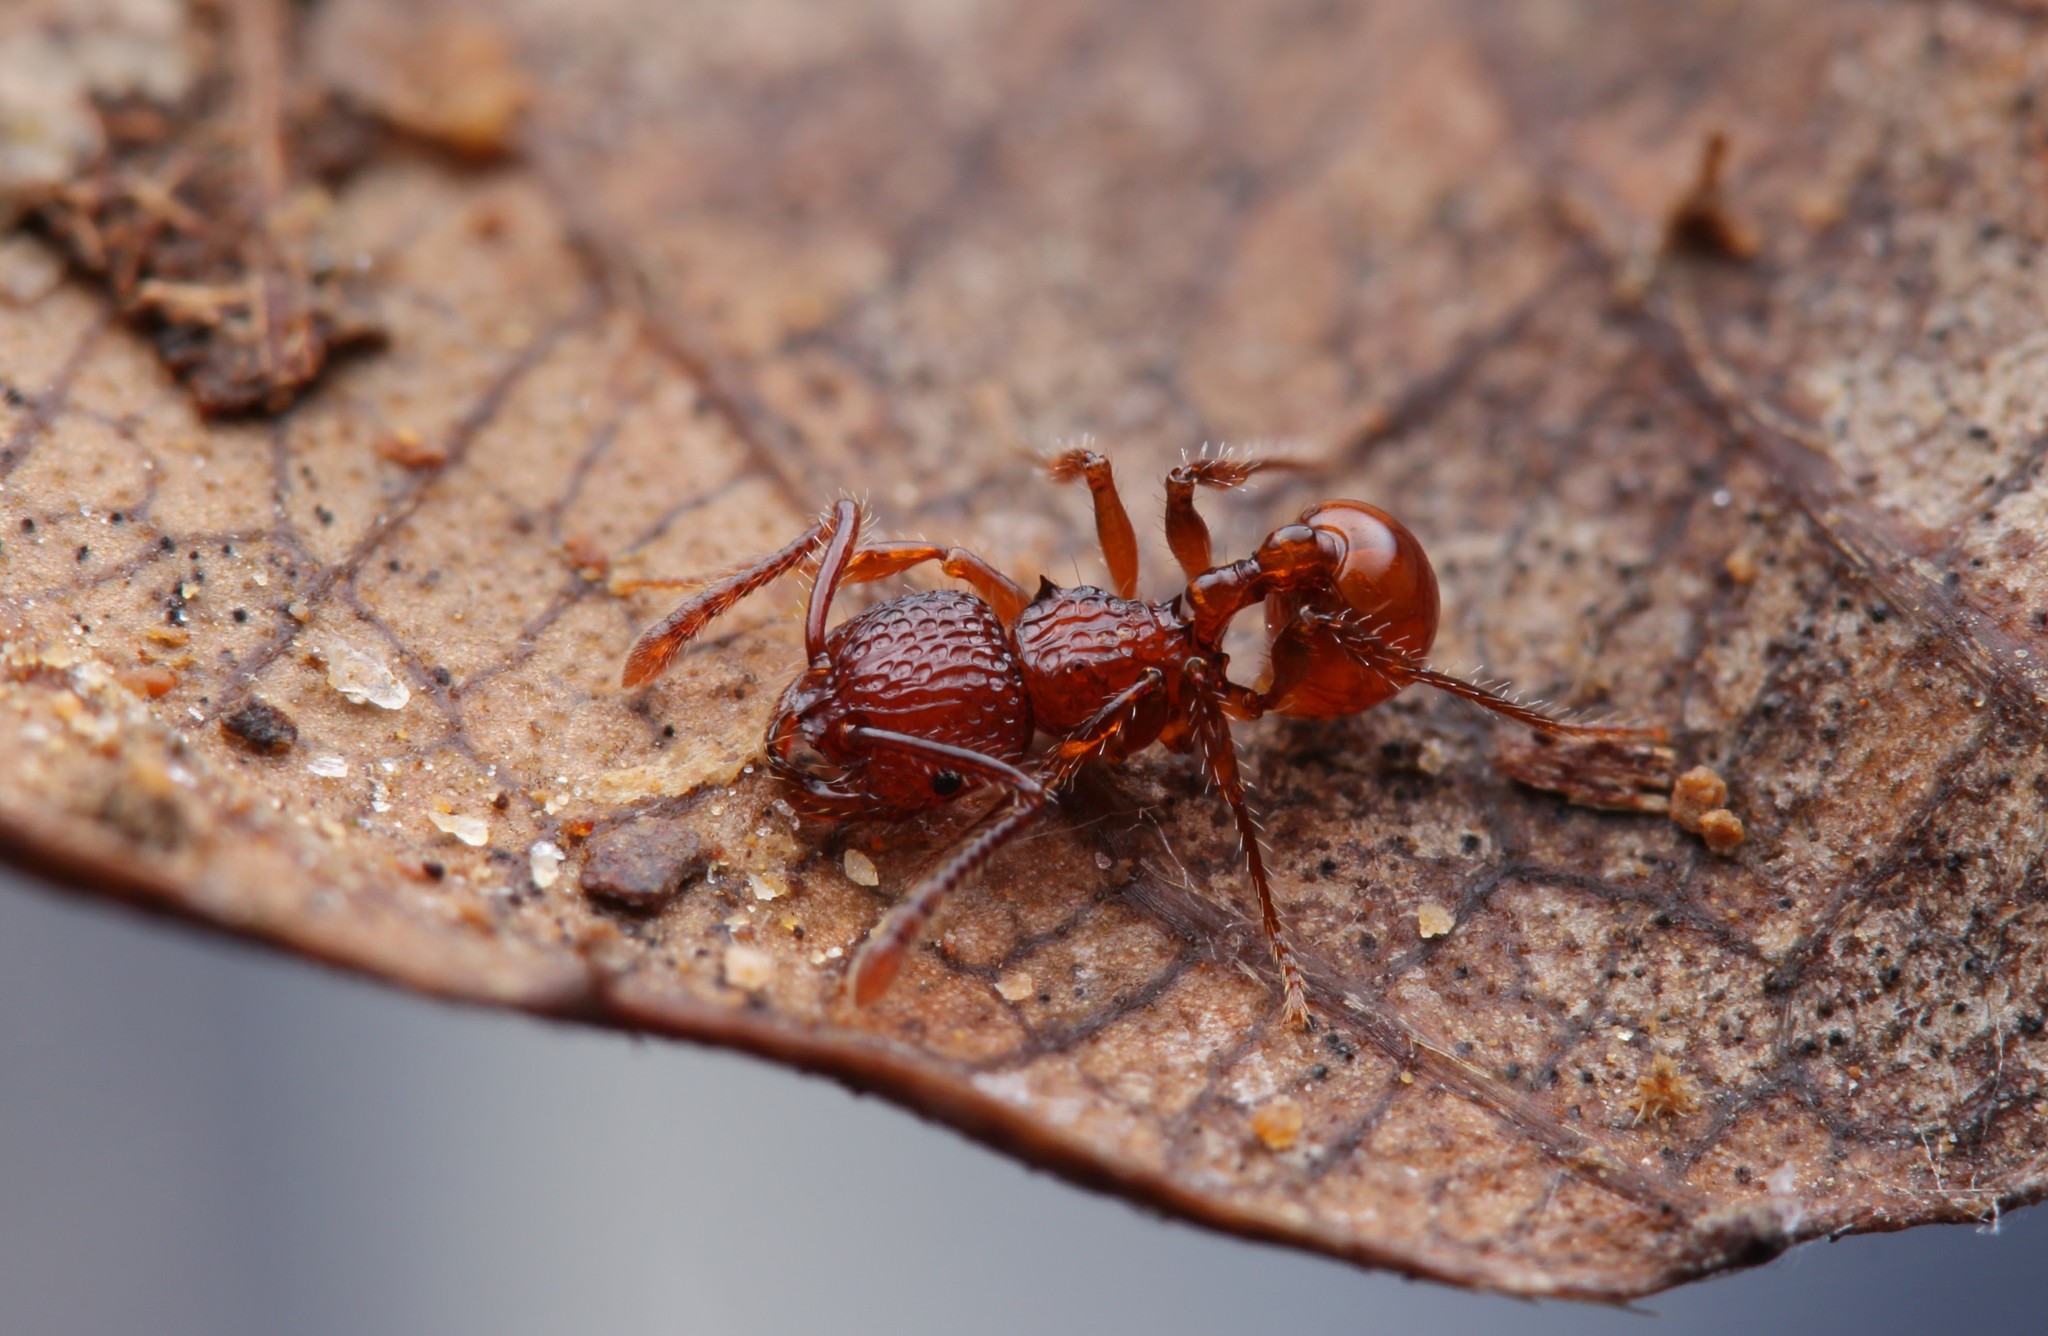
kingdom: Animalia
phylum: Arthropoda
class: Insecta
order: Hymenoptera
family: Formicidae
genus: Pristomyrmex
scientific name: Pristomyrmex brevispinosus
